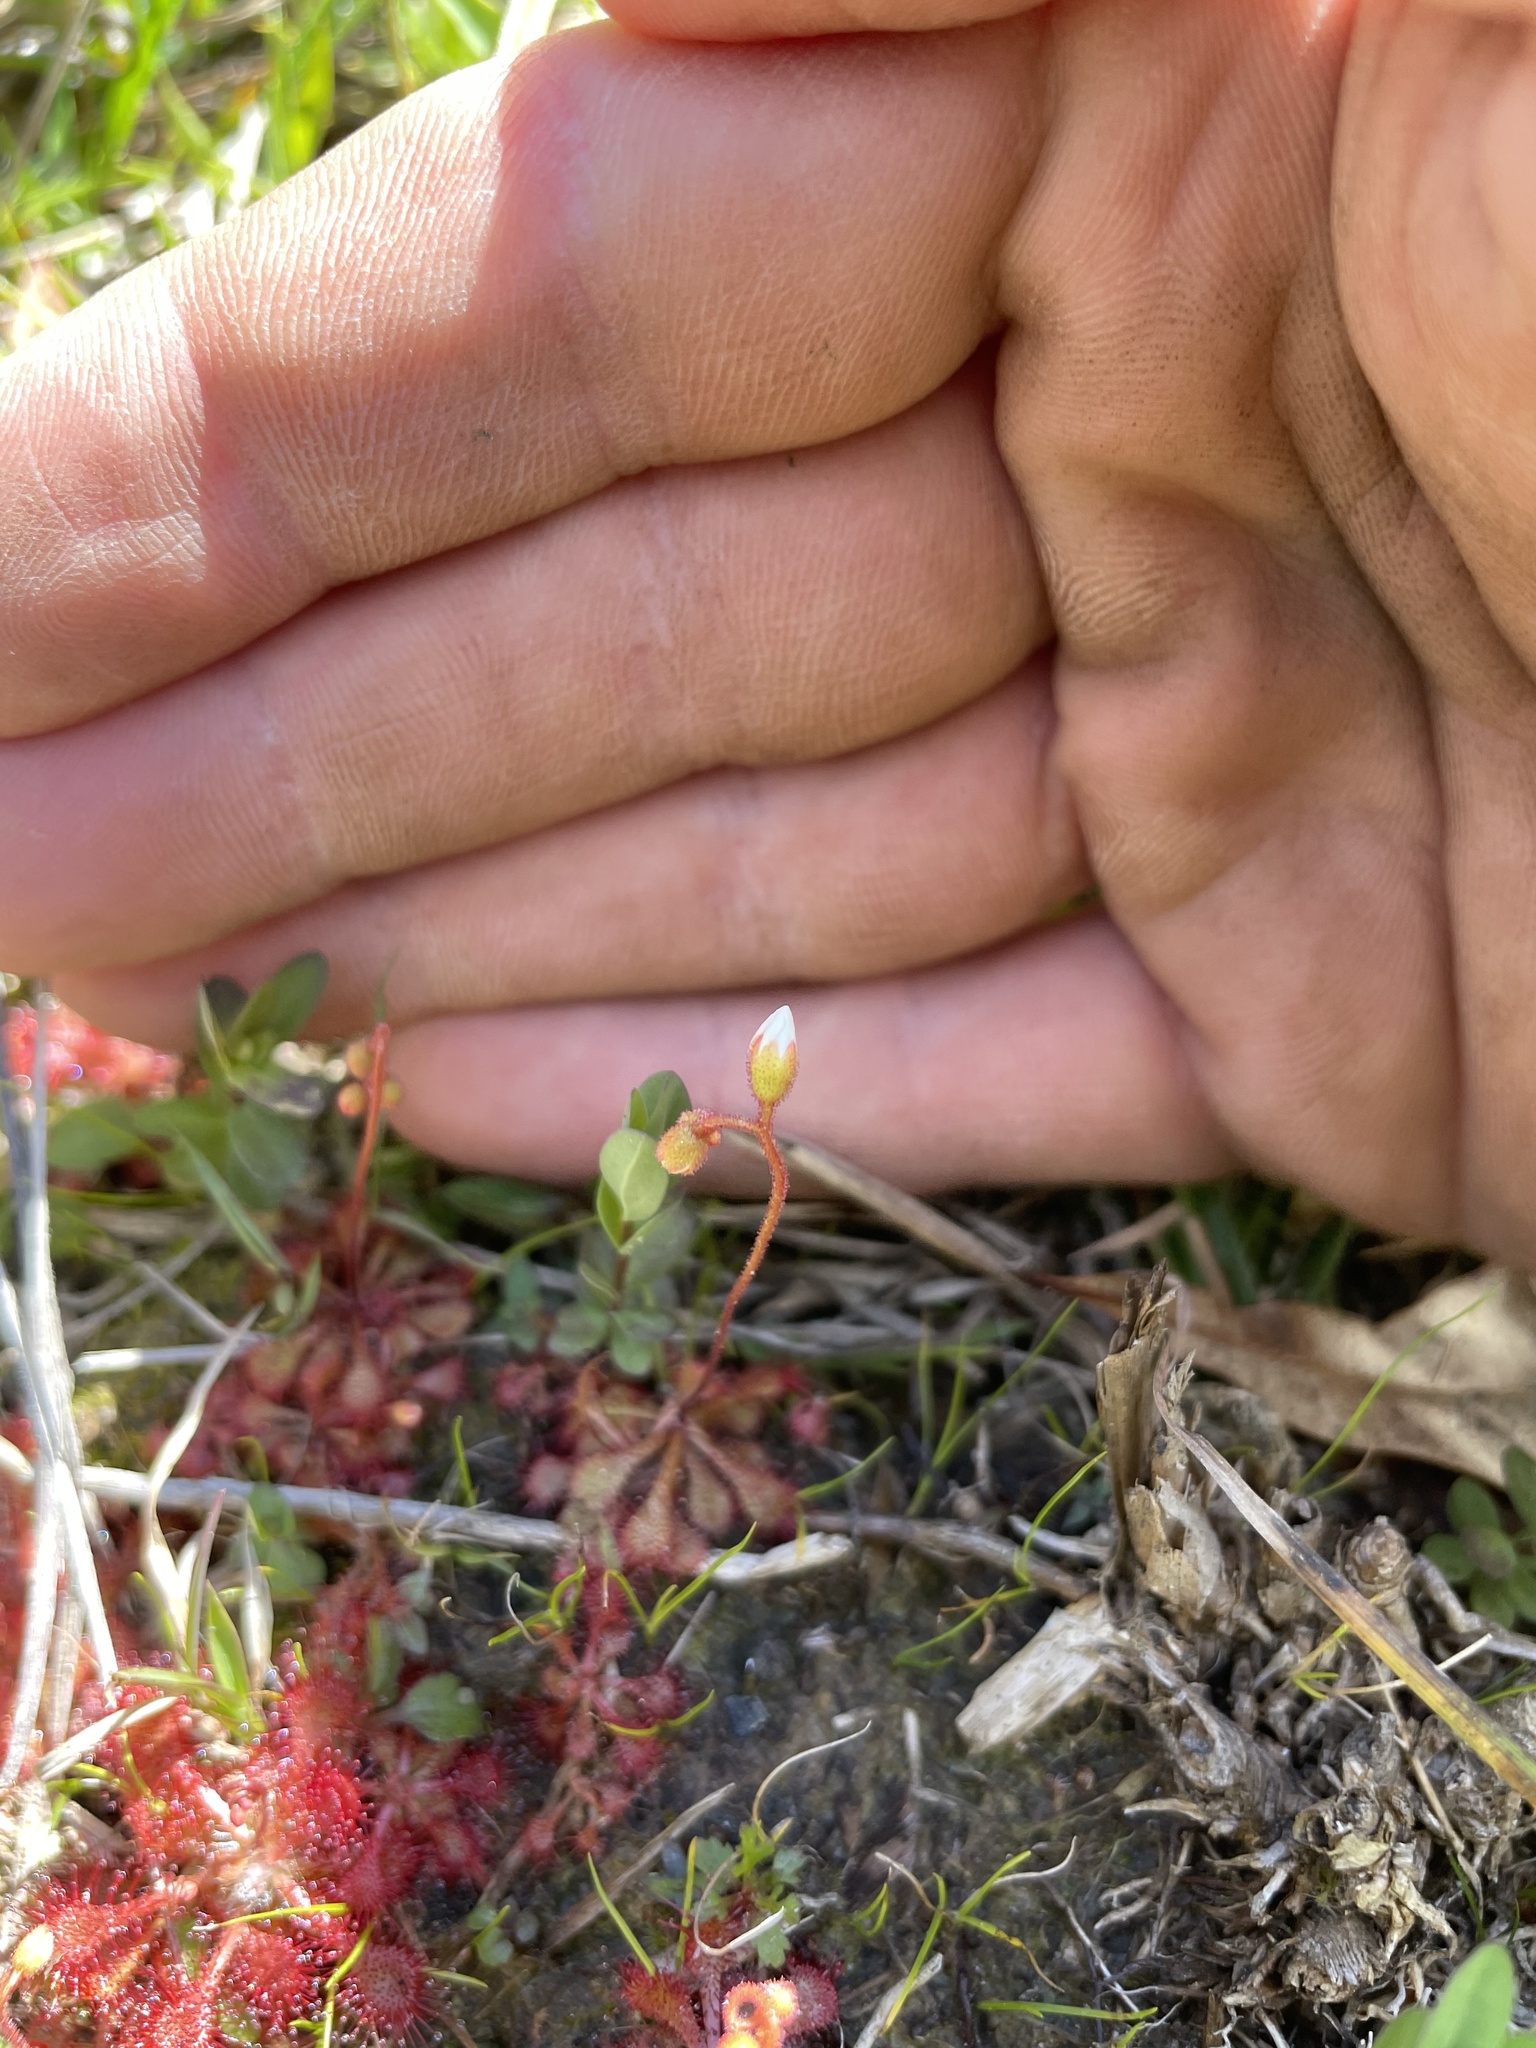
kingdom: Plantae
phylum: Tracheophyta
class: Magnoliopsida
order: Caryophyllales
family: Droseraceae
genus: Drosera
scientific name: Drosera brevifolia
